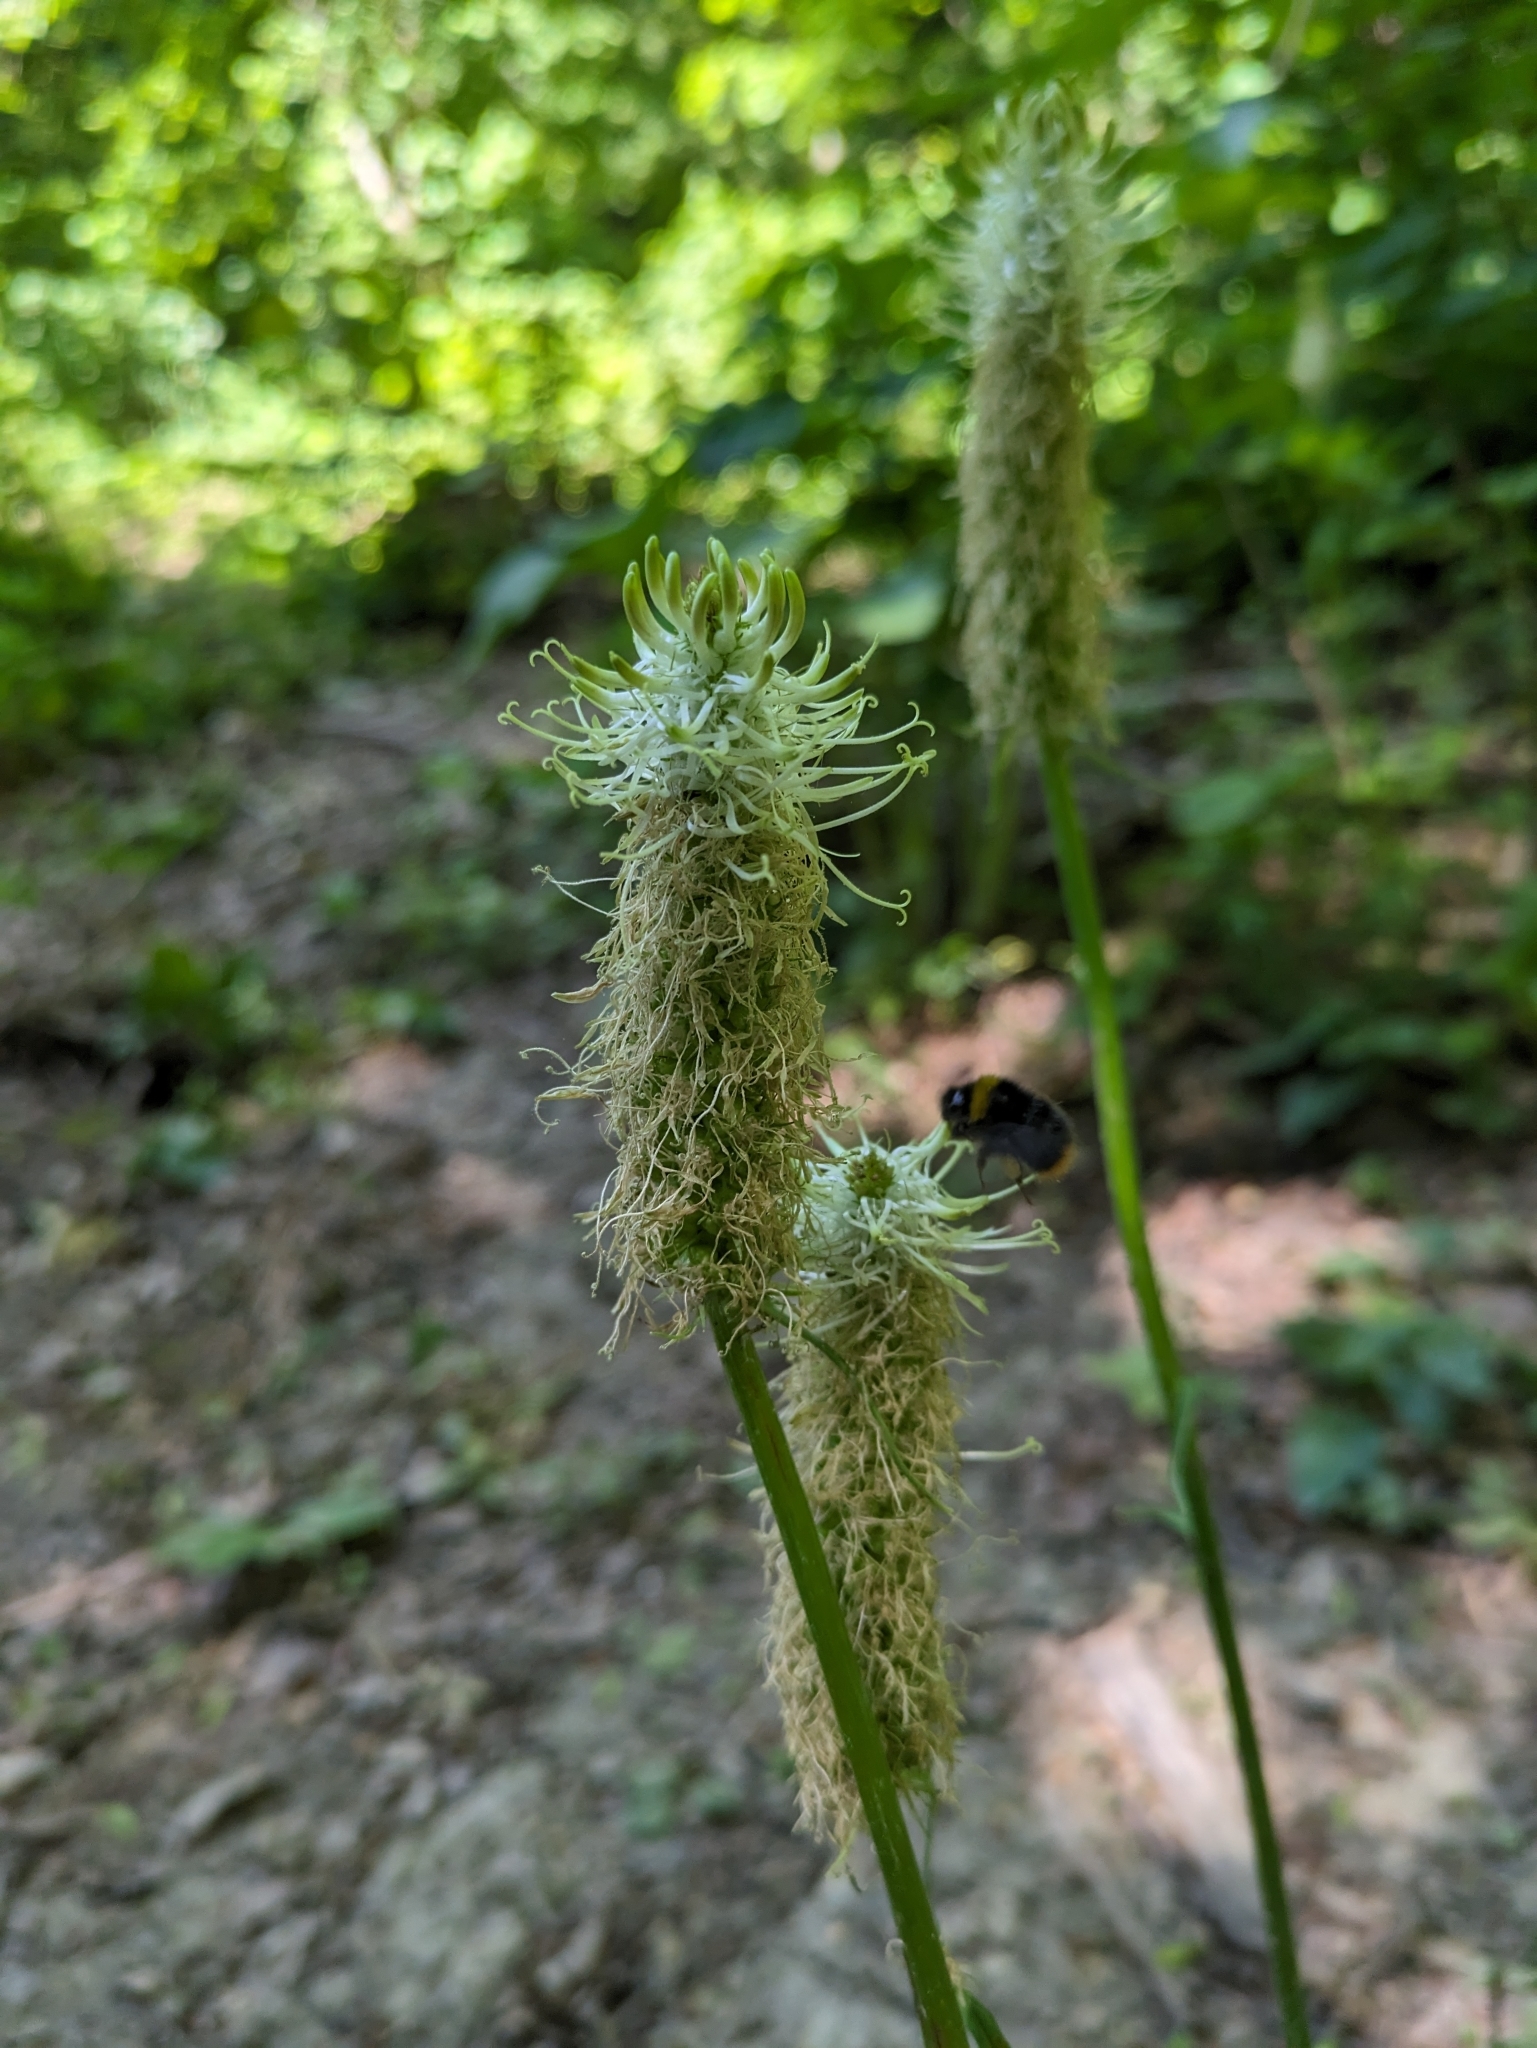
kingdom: Plantae
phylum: Tracheophyta
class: Magnoliopsida
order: Asterales
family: Campanulaceae
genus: Phyteuma
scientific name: Phyteuma spicatum
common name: Spiked rampion
